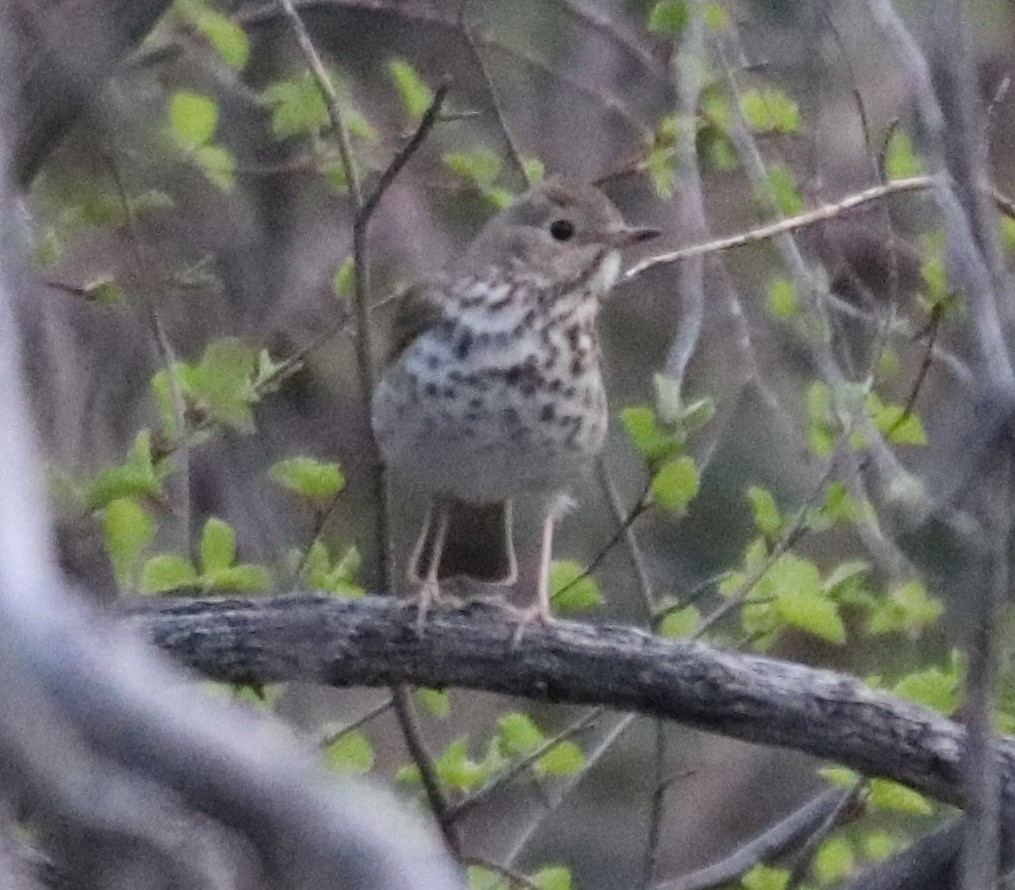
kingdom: Animalia
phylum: Chordata
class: Aves
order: Passeriformes
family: Turdidae
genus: Catharus
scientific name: Catharus guttatus
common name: Hermit thrush
